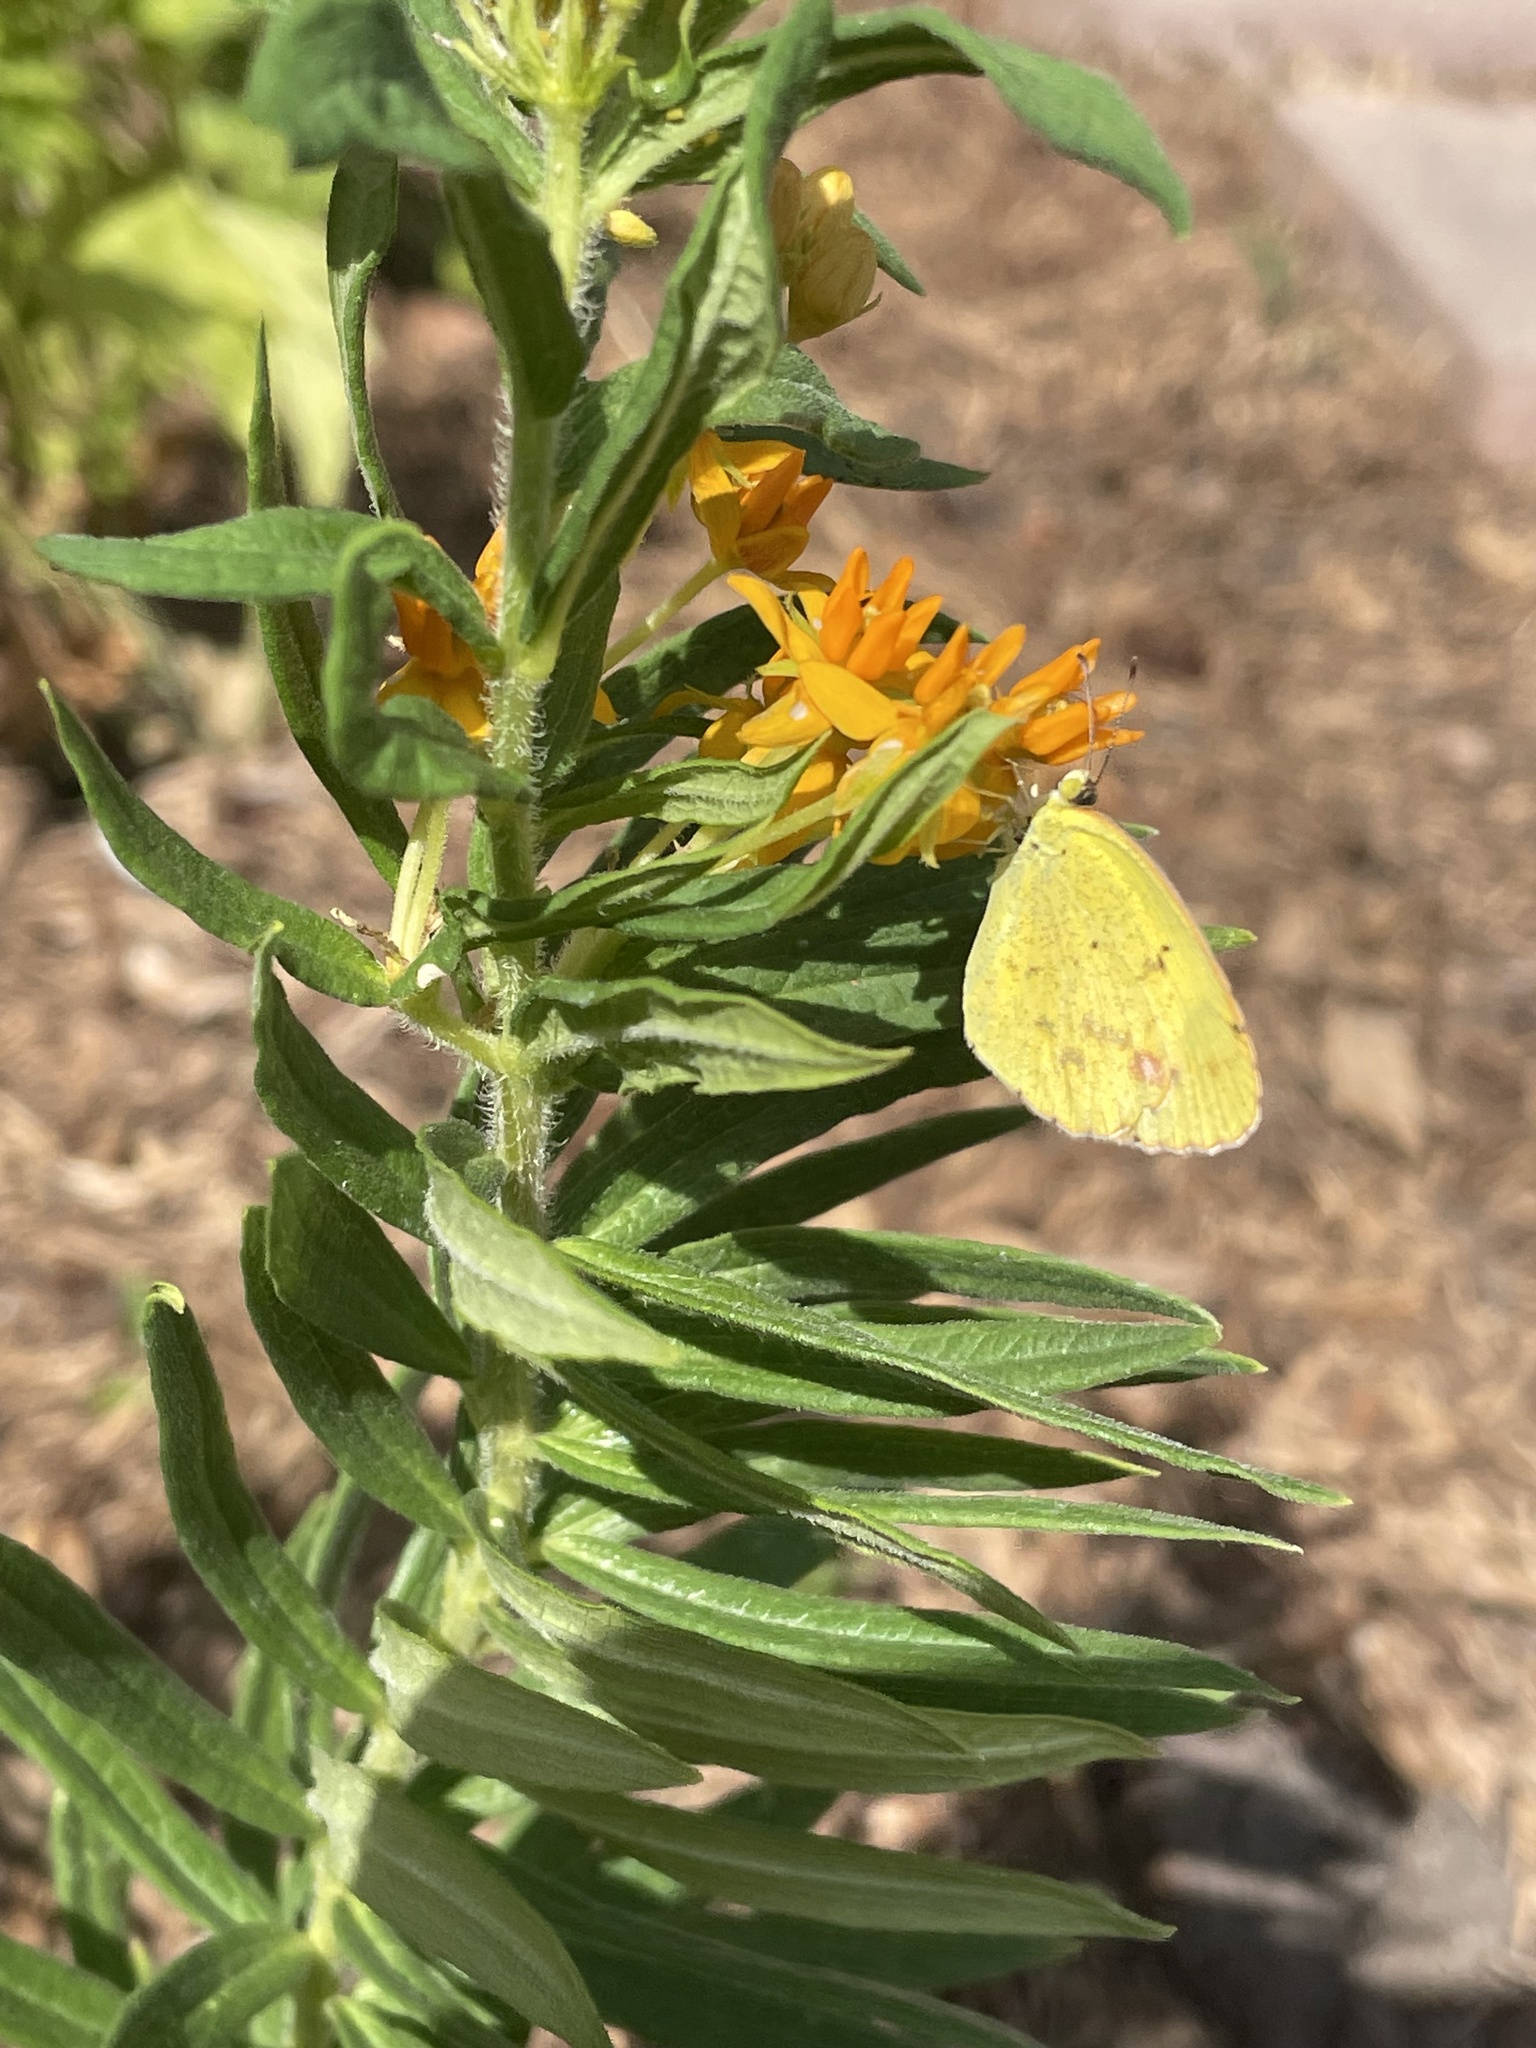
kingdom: Animalia
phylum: Arthropoda
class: Insecta
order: Lepidoptera
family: Pieridae
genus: Pyrisitia
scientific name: Pyrisitia lisa
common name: Little yellow
